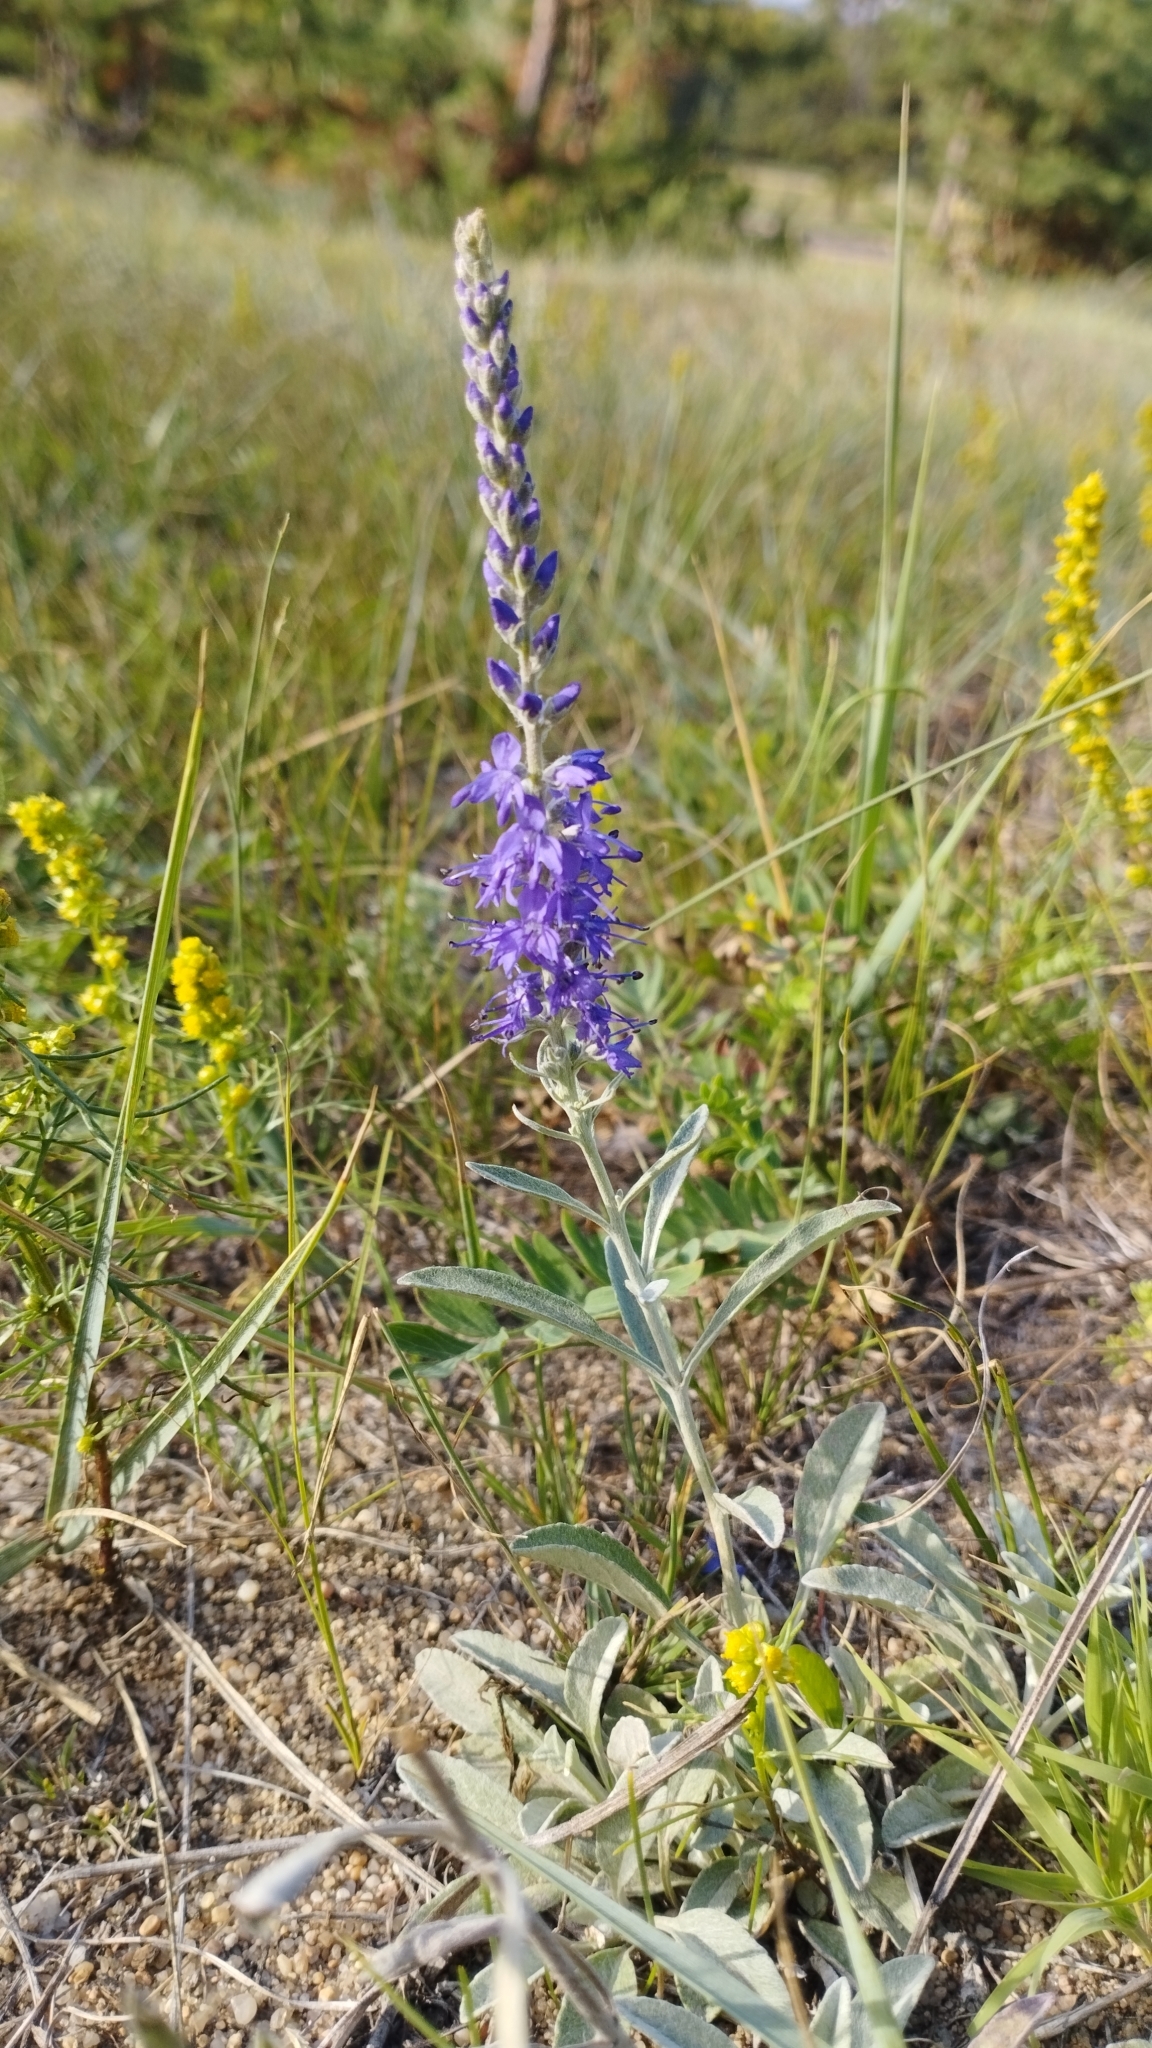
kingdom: Plantae
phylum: Tracheophyta
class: Magnoliopsida
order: Lamiales
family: Plantaginaceae
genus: Veronica
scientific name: Veronica incana
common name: Silver speedwell
